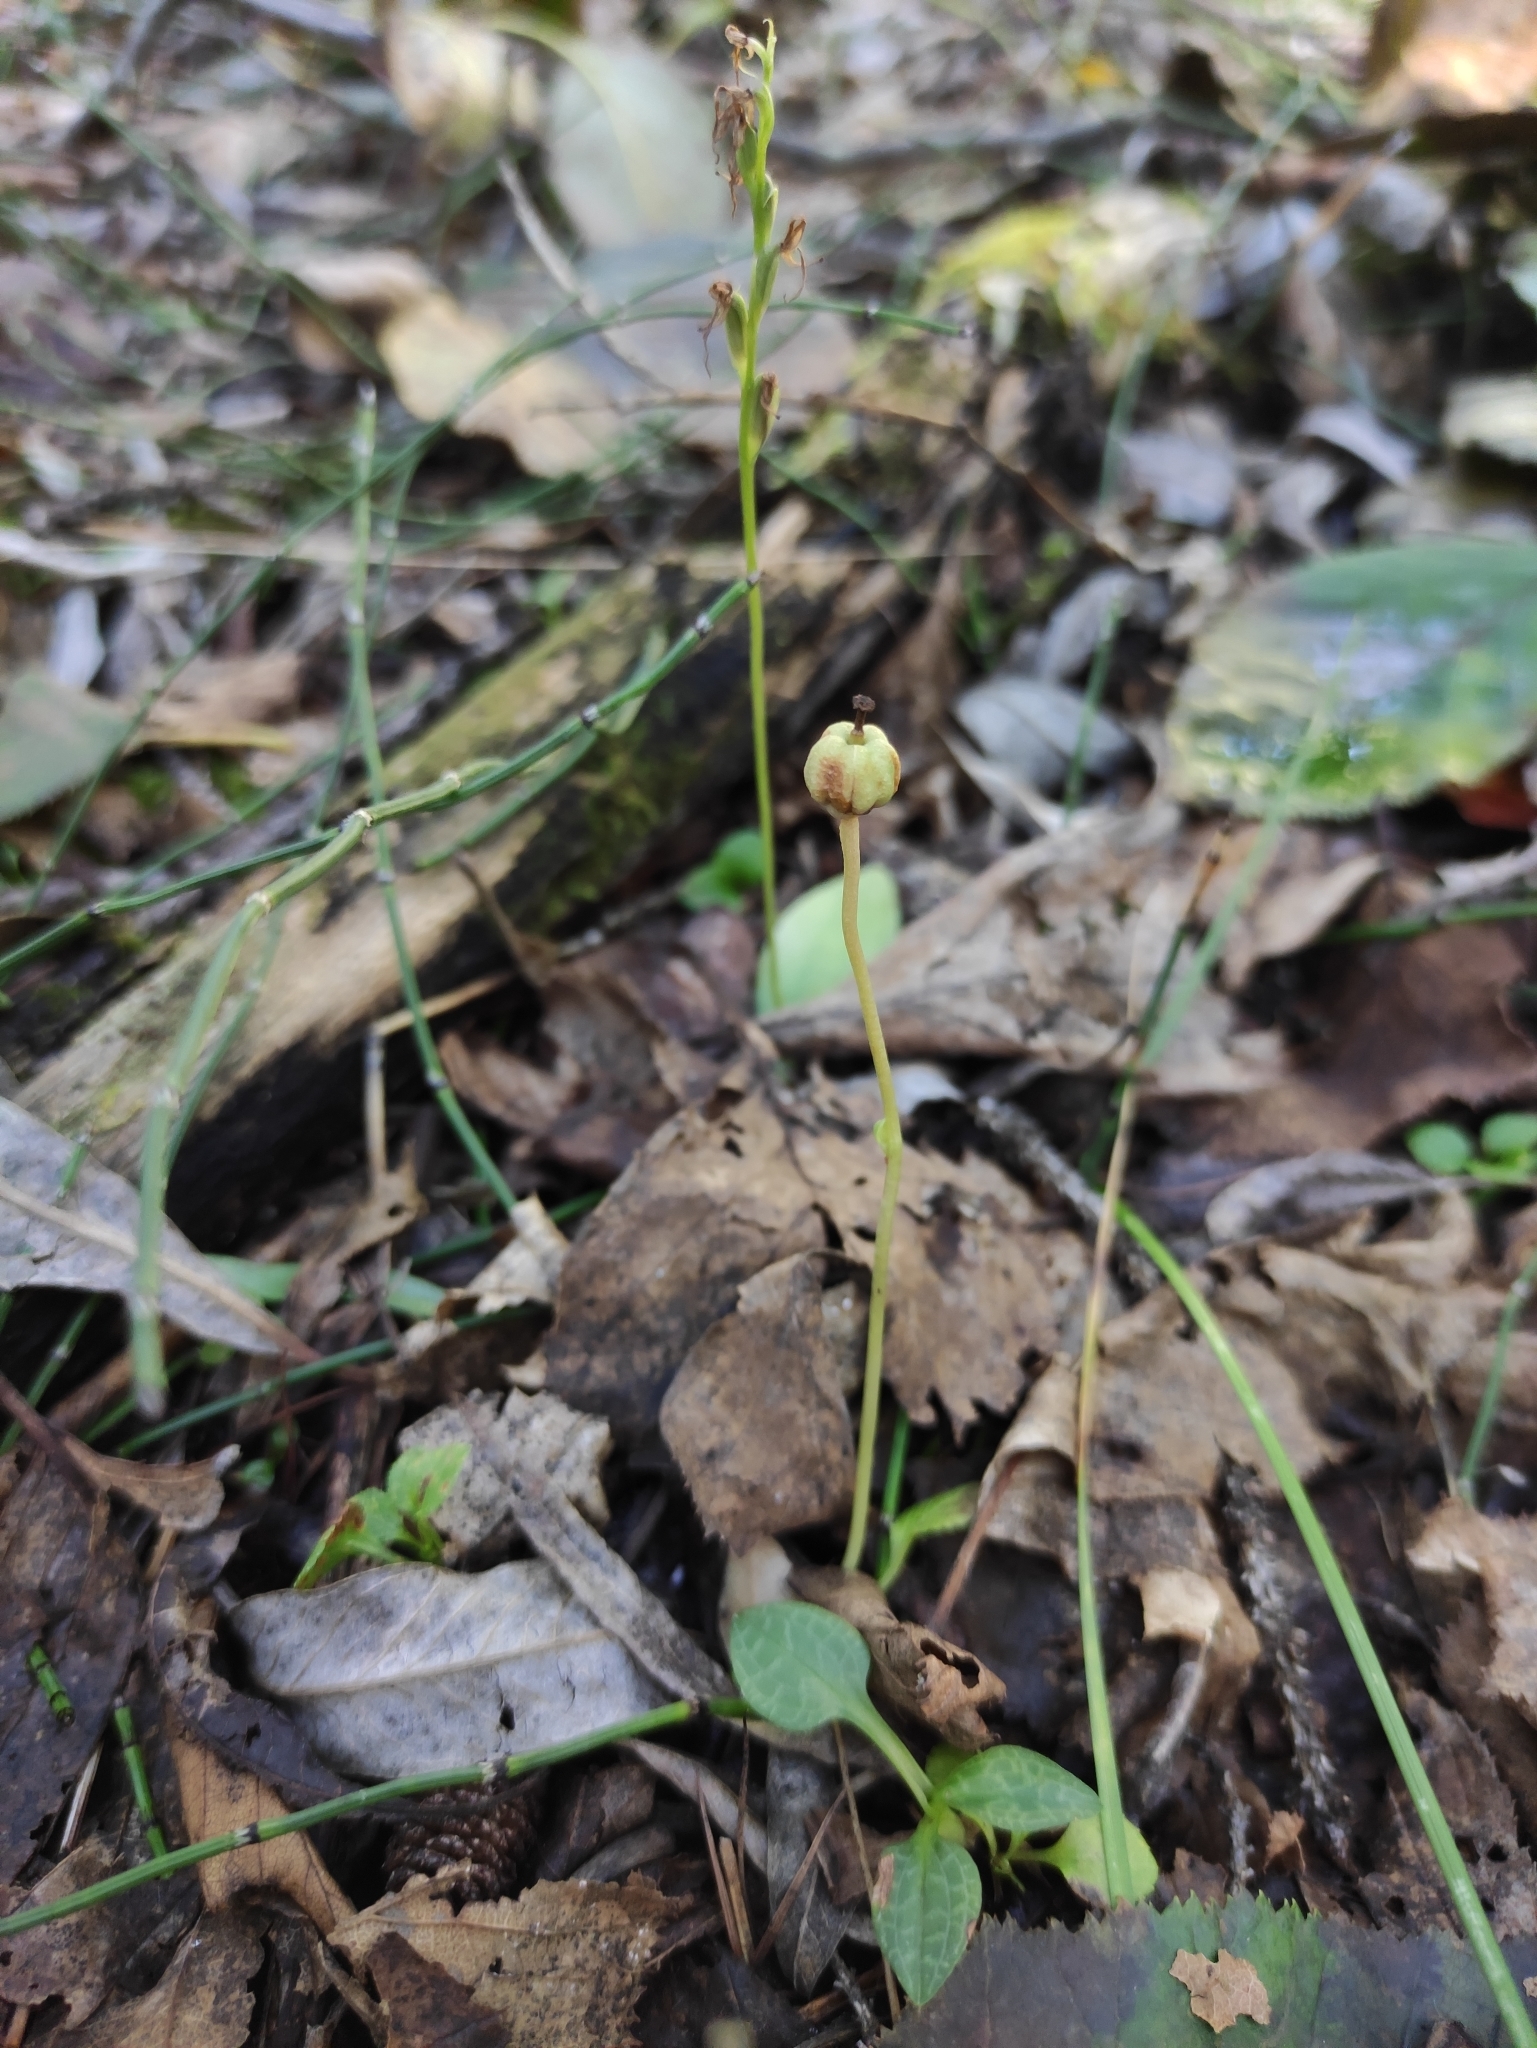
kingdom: Plantae
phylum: Tracheophyta
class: Magnoliopsida
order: Ericales
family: Ericaceae
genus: Moneses
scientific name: Moneses uniflora
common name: One-flowered wintergreen
